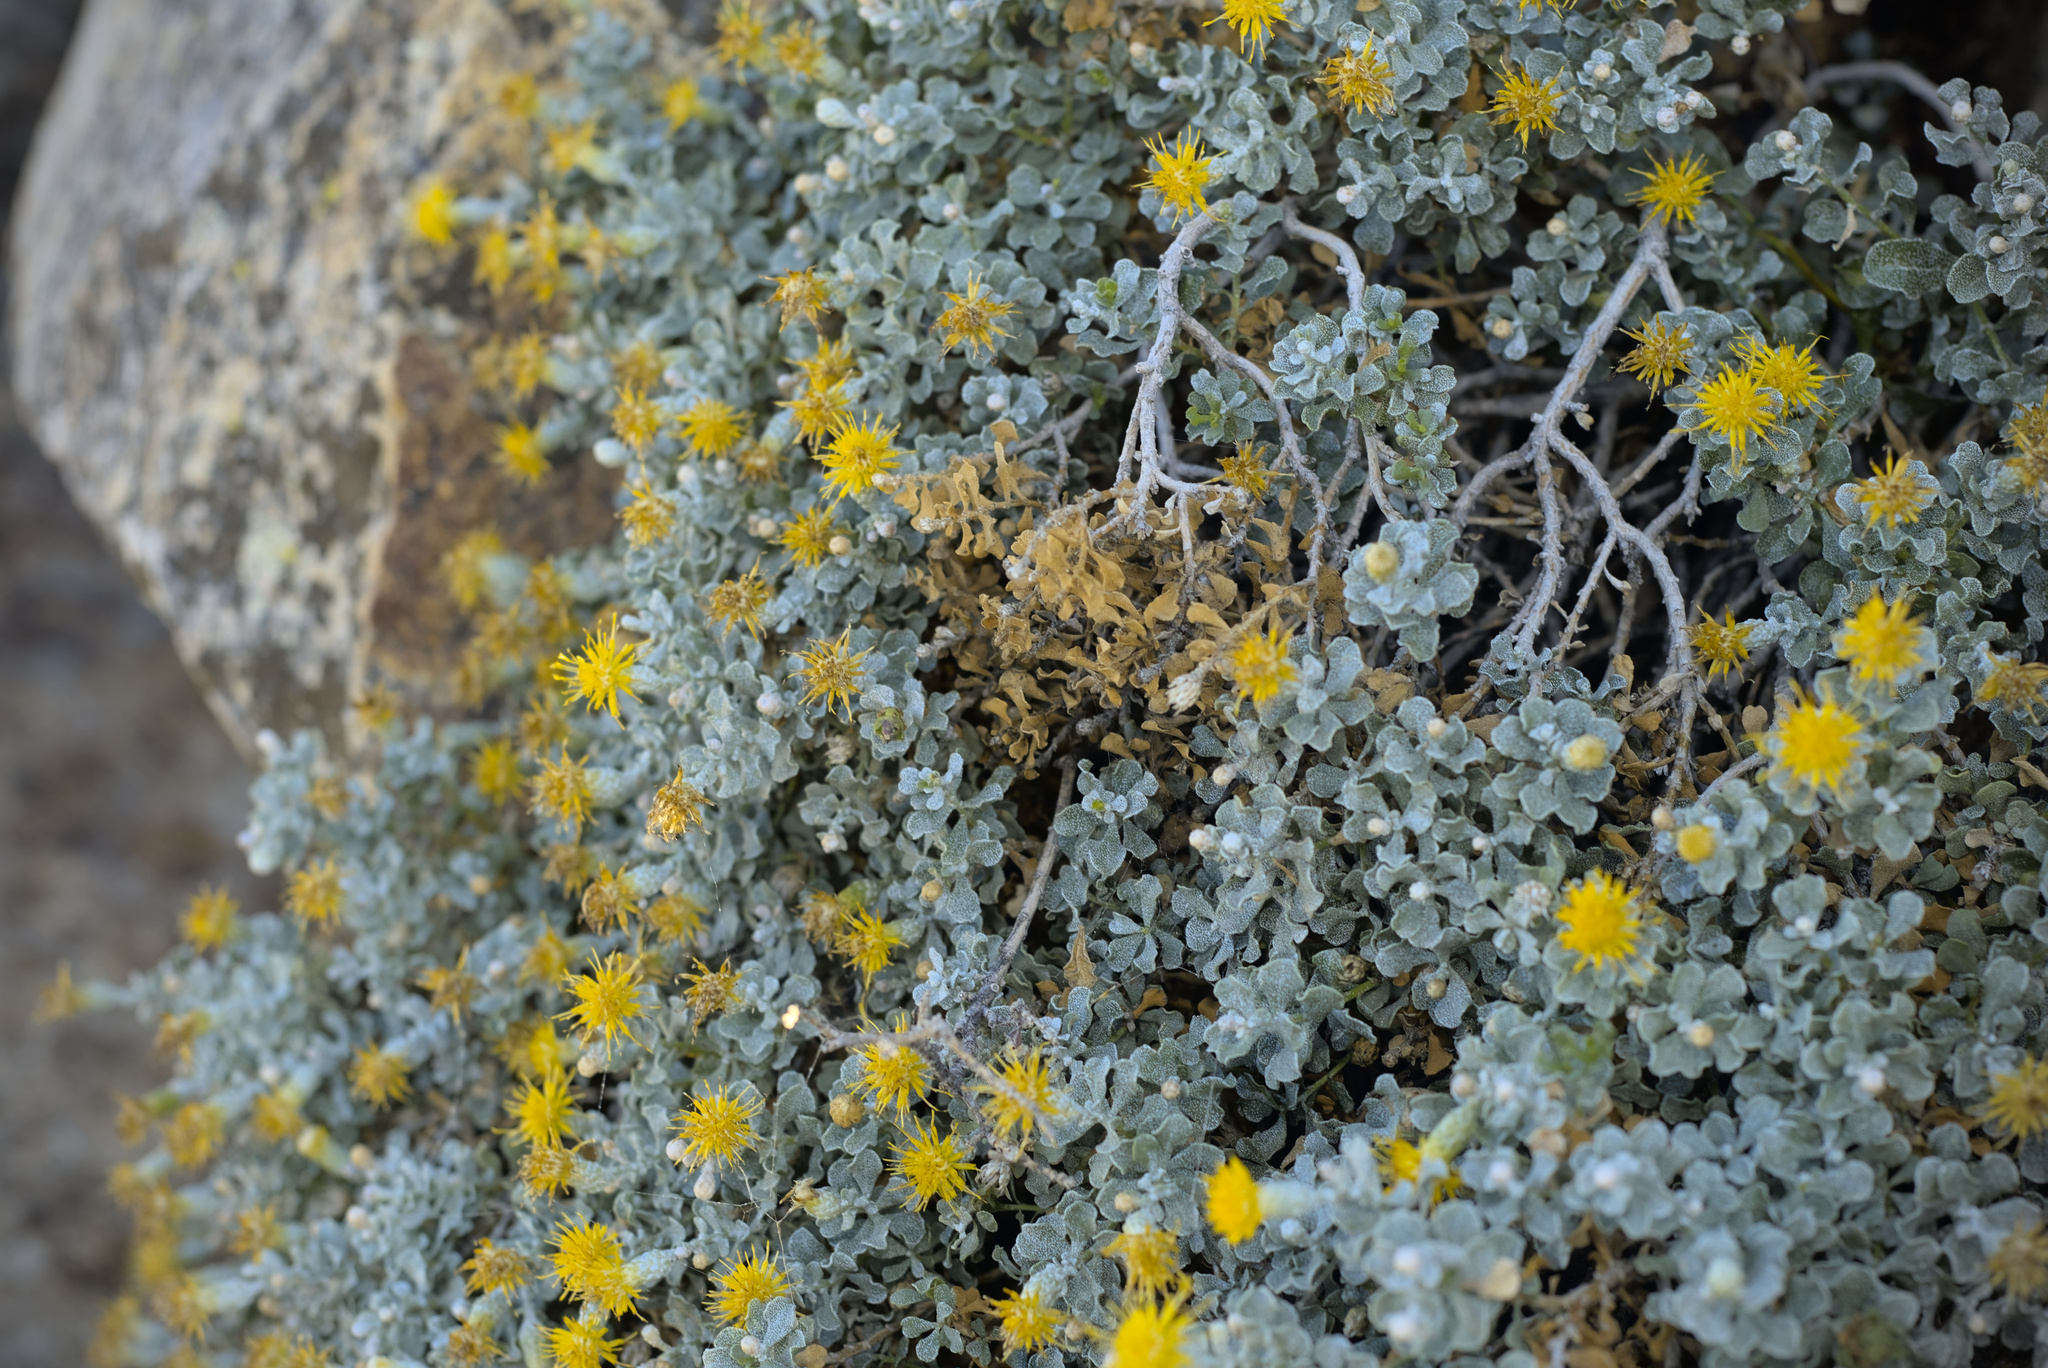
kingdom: Plantae
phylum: Tracheophyta
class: Magnoliopsida
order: Asterales
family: Asteraceae
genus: Ericameria
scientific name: Ericameria cuneata
